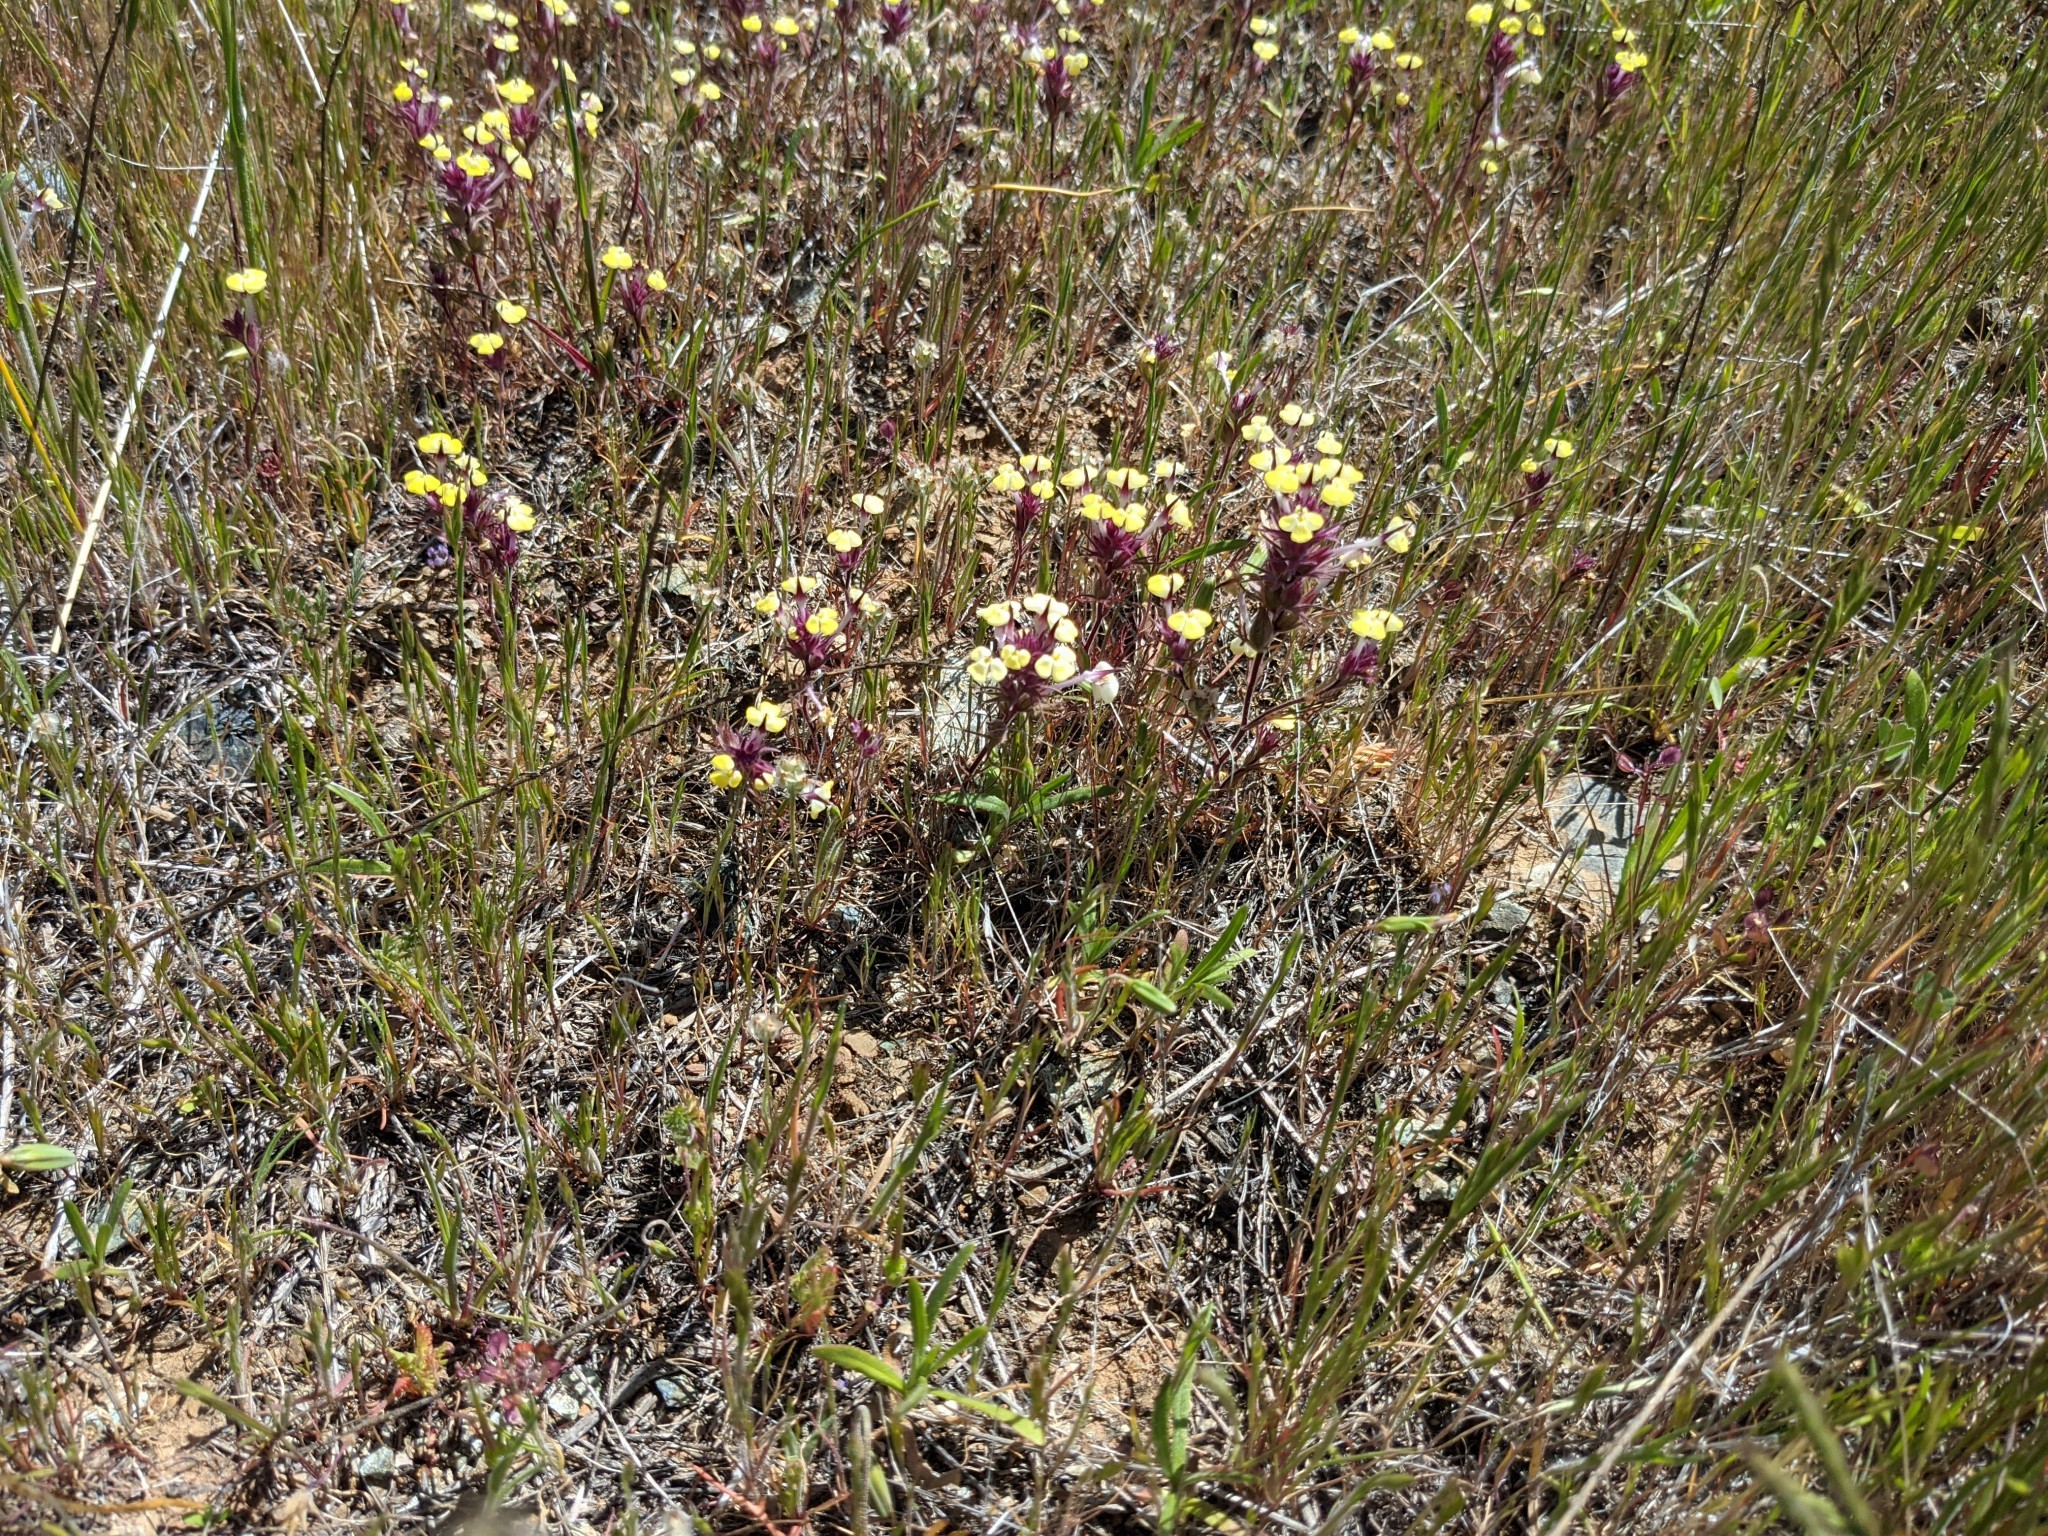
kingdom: Plantae
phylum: Tracheophyta
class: Magnoliopsida
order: Lamiales
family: Orobanchaceae
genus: Triphysaria
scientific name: Triphysaria eriantha
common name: Johnny-tuck
